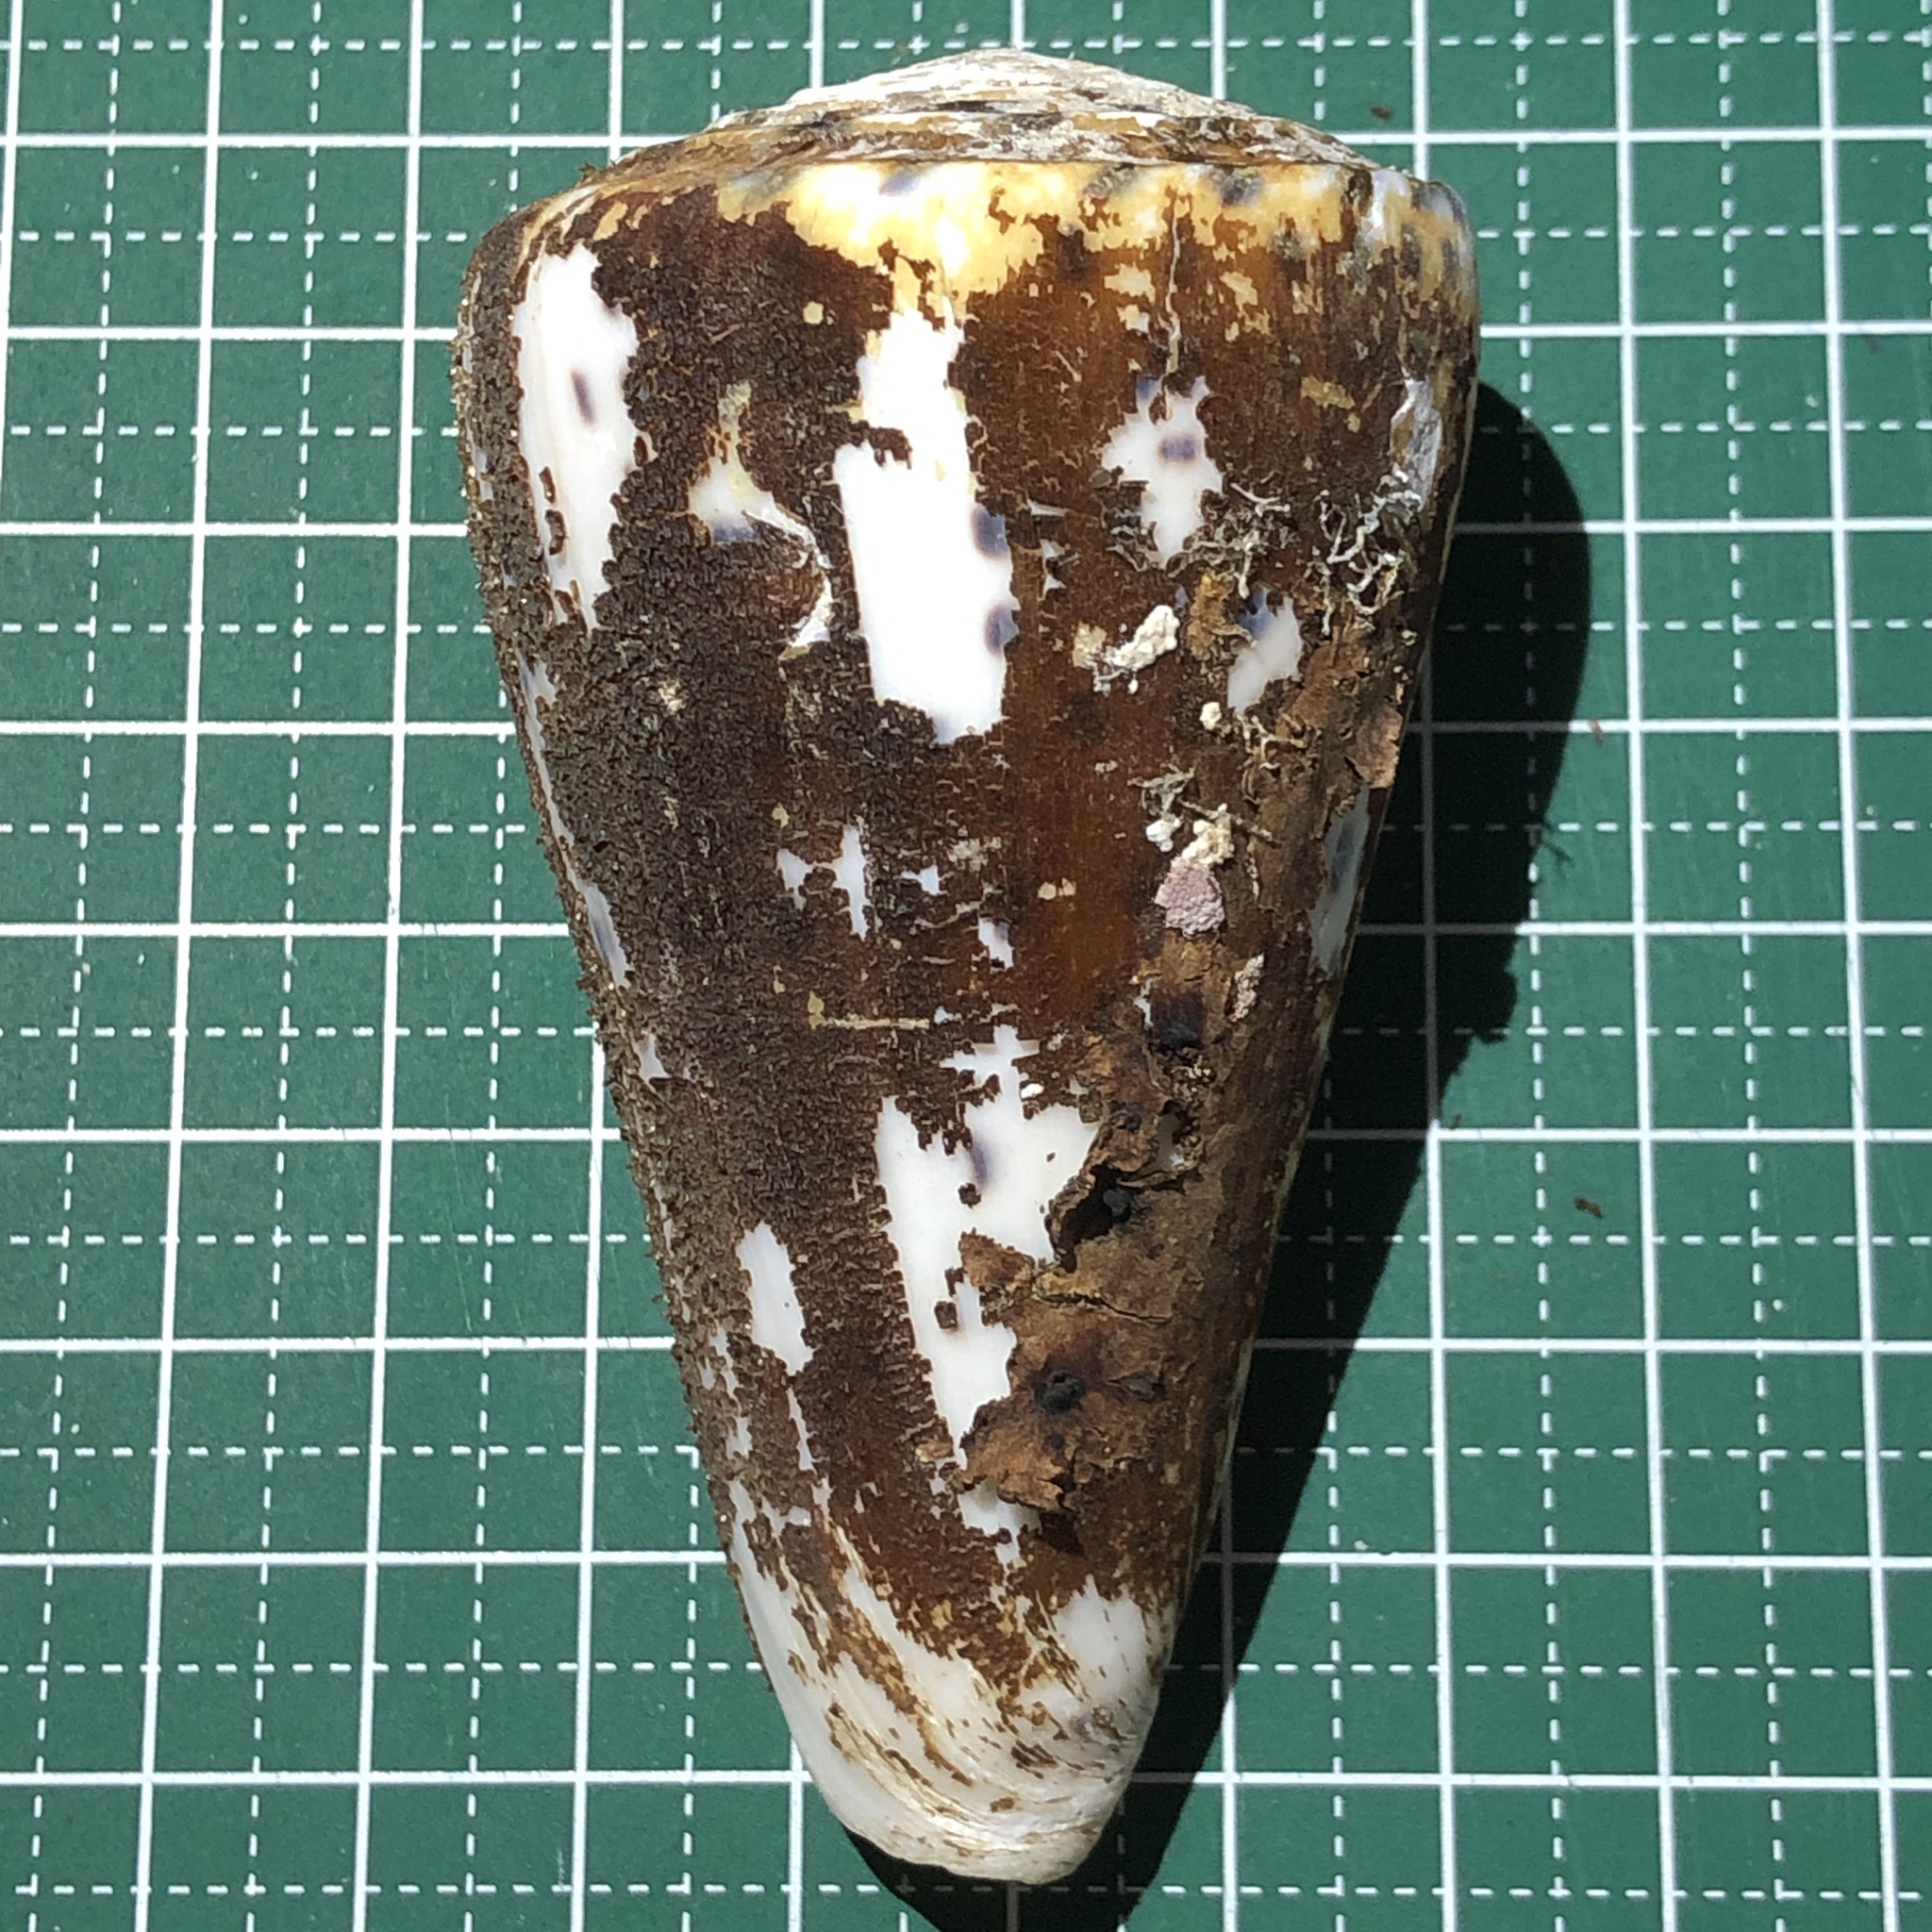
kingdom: Animalia
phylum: Mollusca
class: Gastropoda
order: Neogastropoda
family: Conidae
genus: Conus
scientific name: Conus leopardus
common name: Leopard cone
